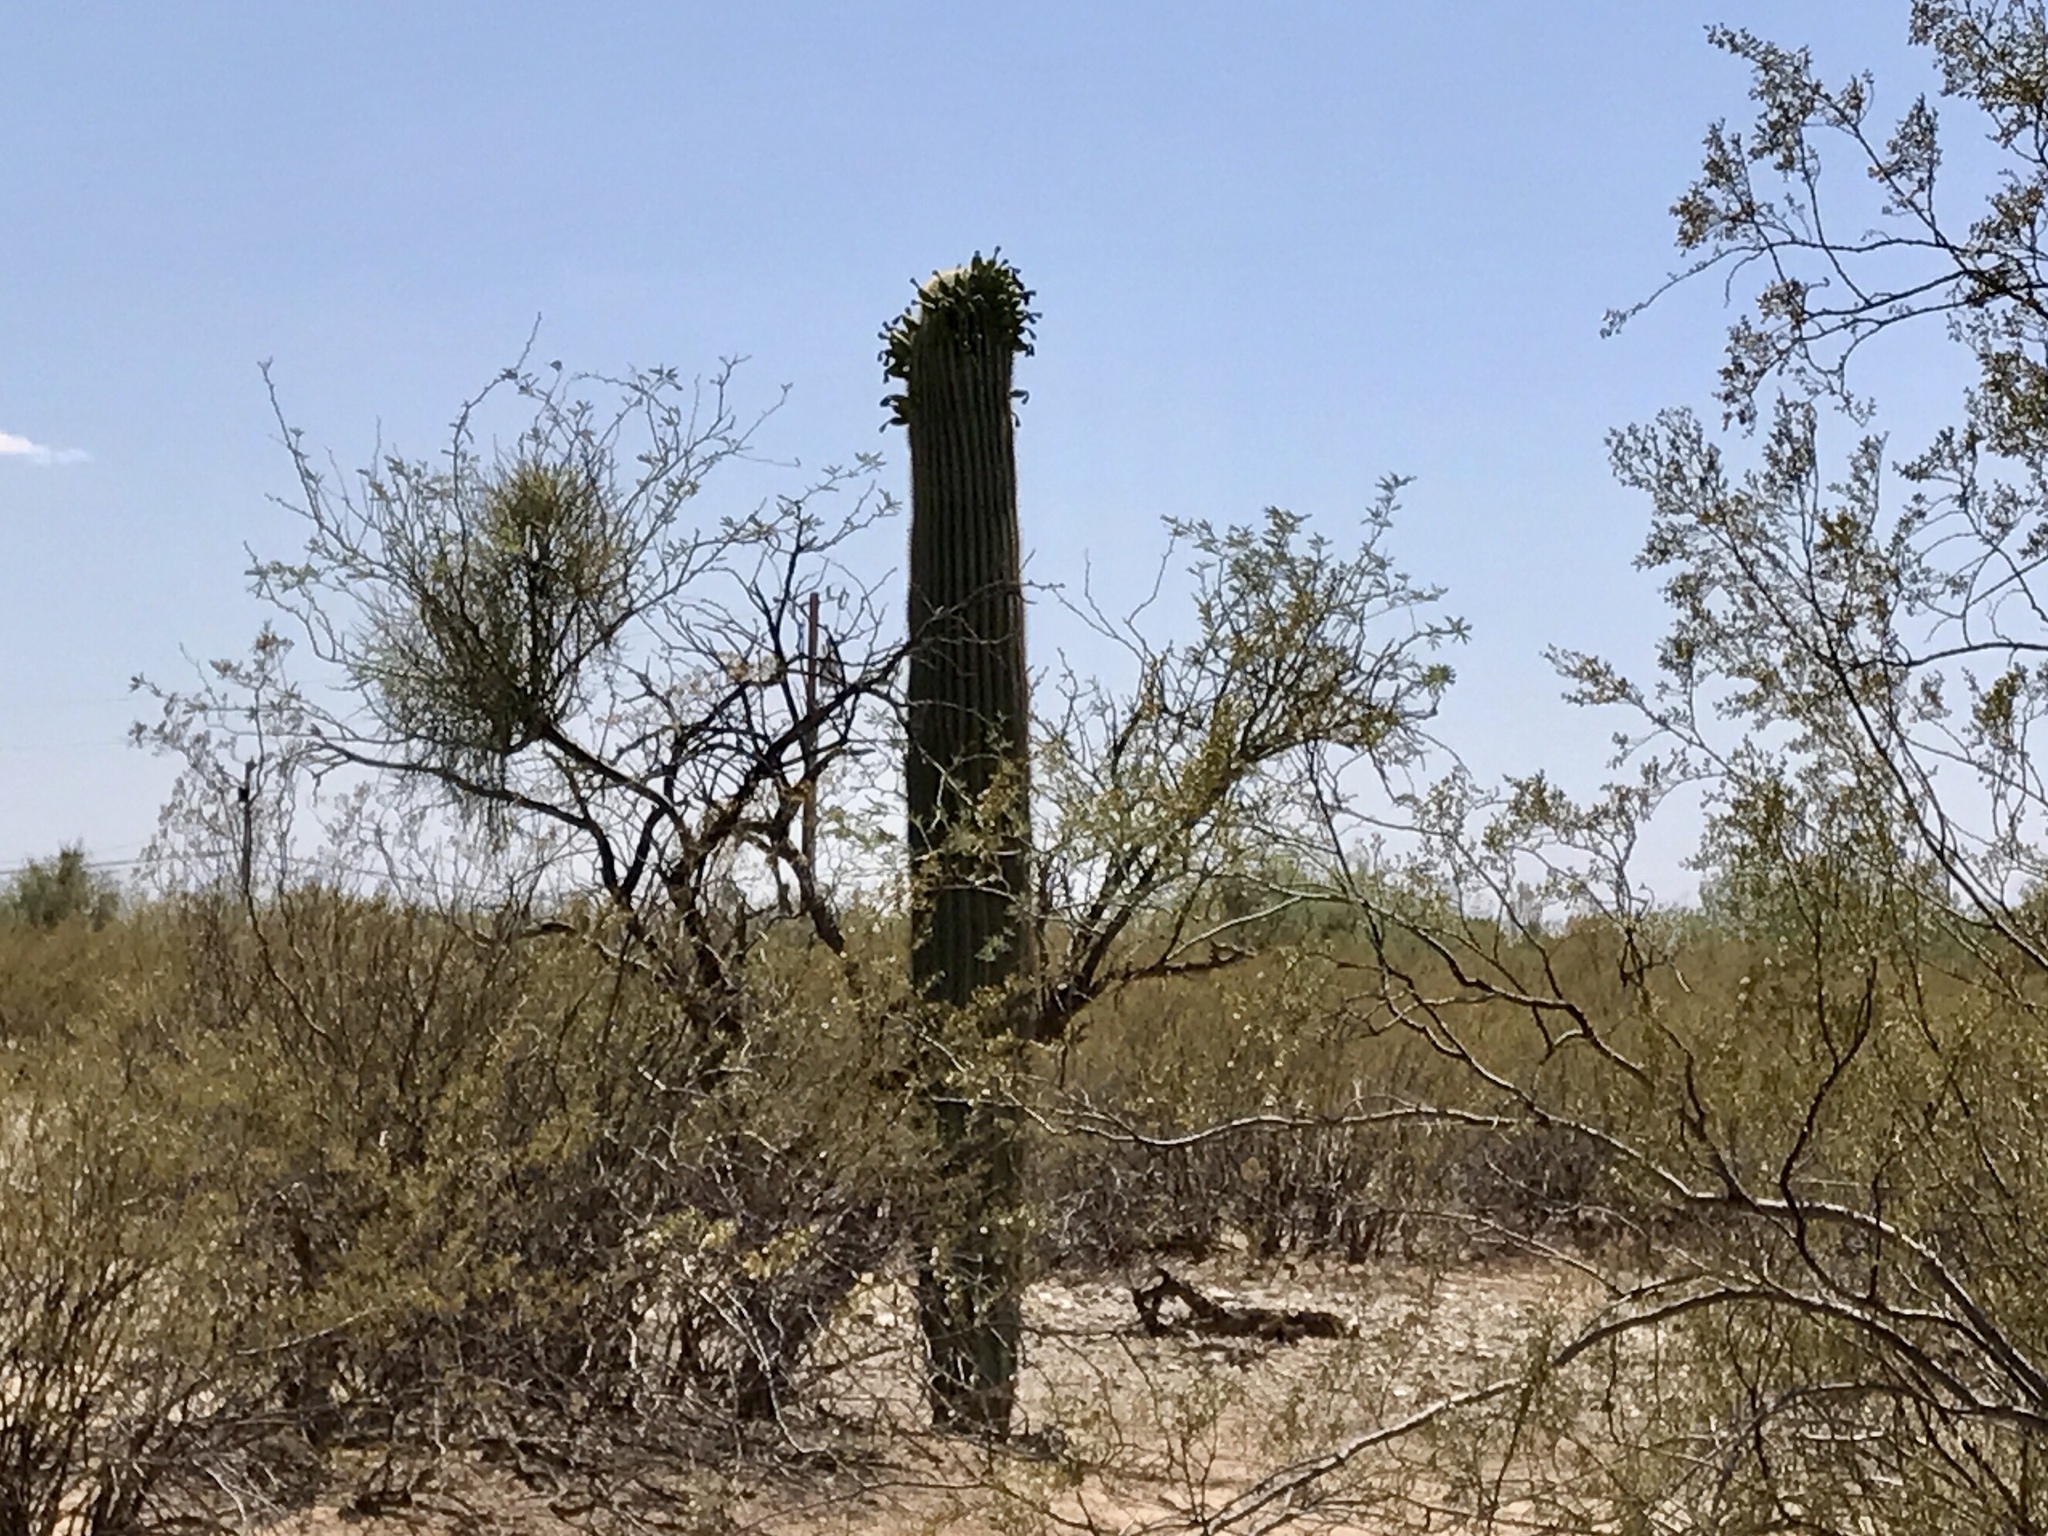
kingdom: Plantae
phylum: Tracheophyta
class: Magnoliopsida
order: Caryophyllales
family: Cactaceae
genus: Carnegiea
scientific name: Carnegiea gigantea
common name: Saguaro
